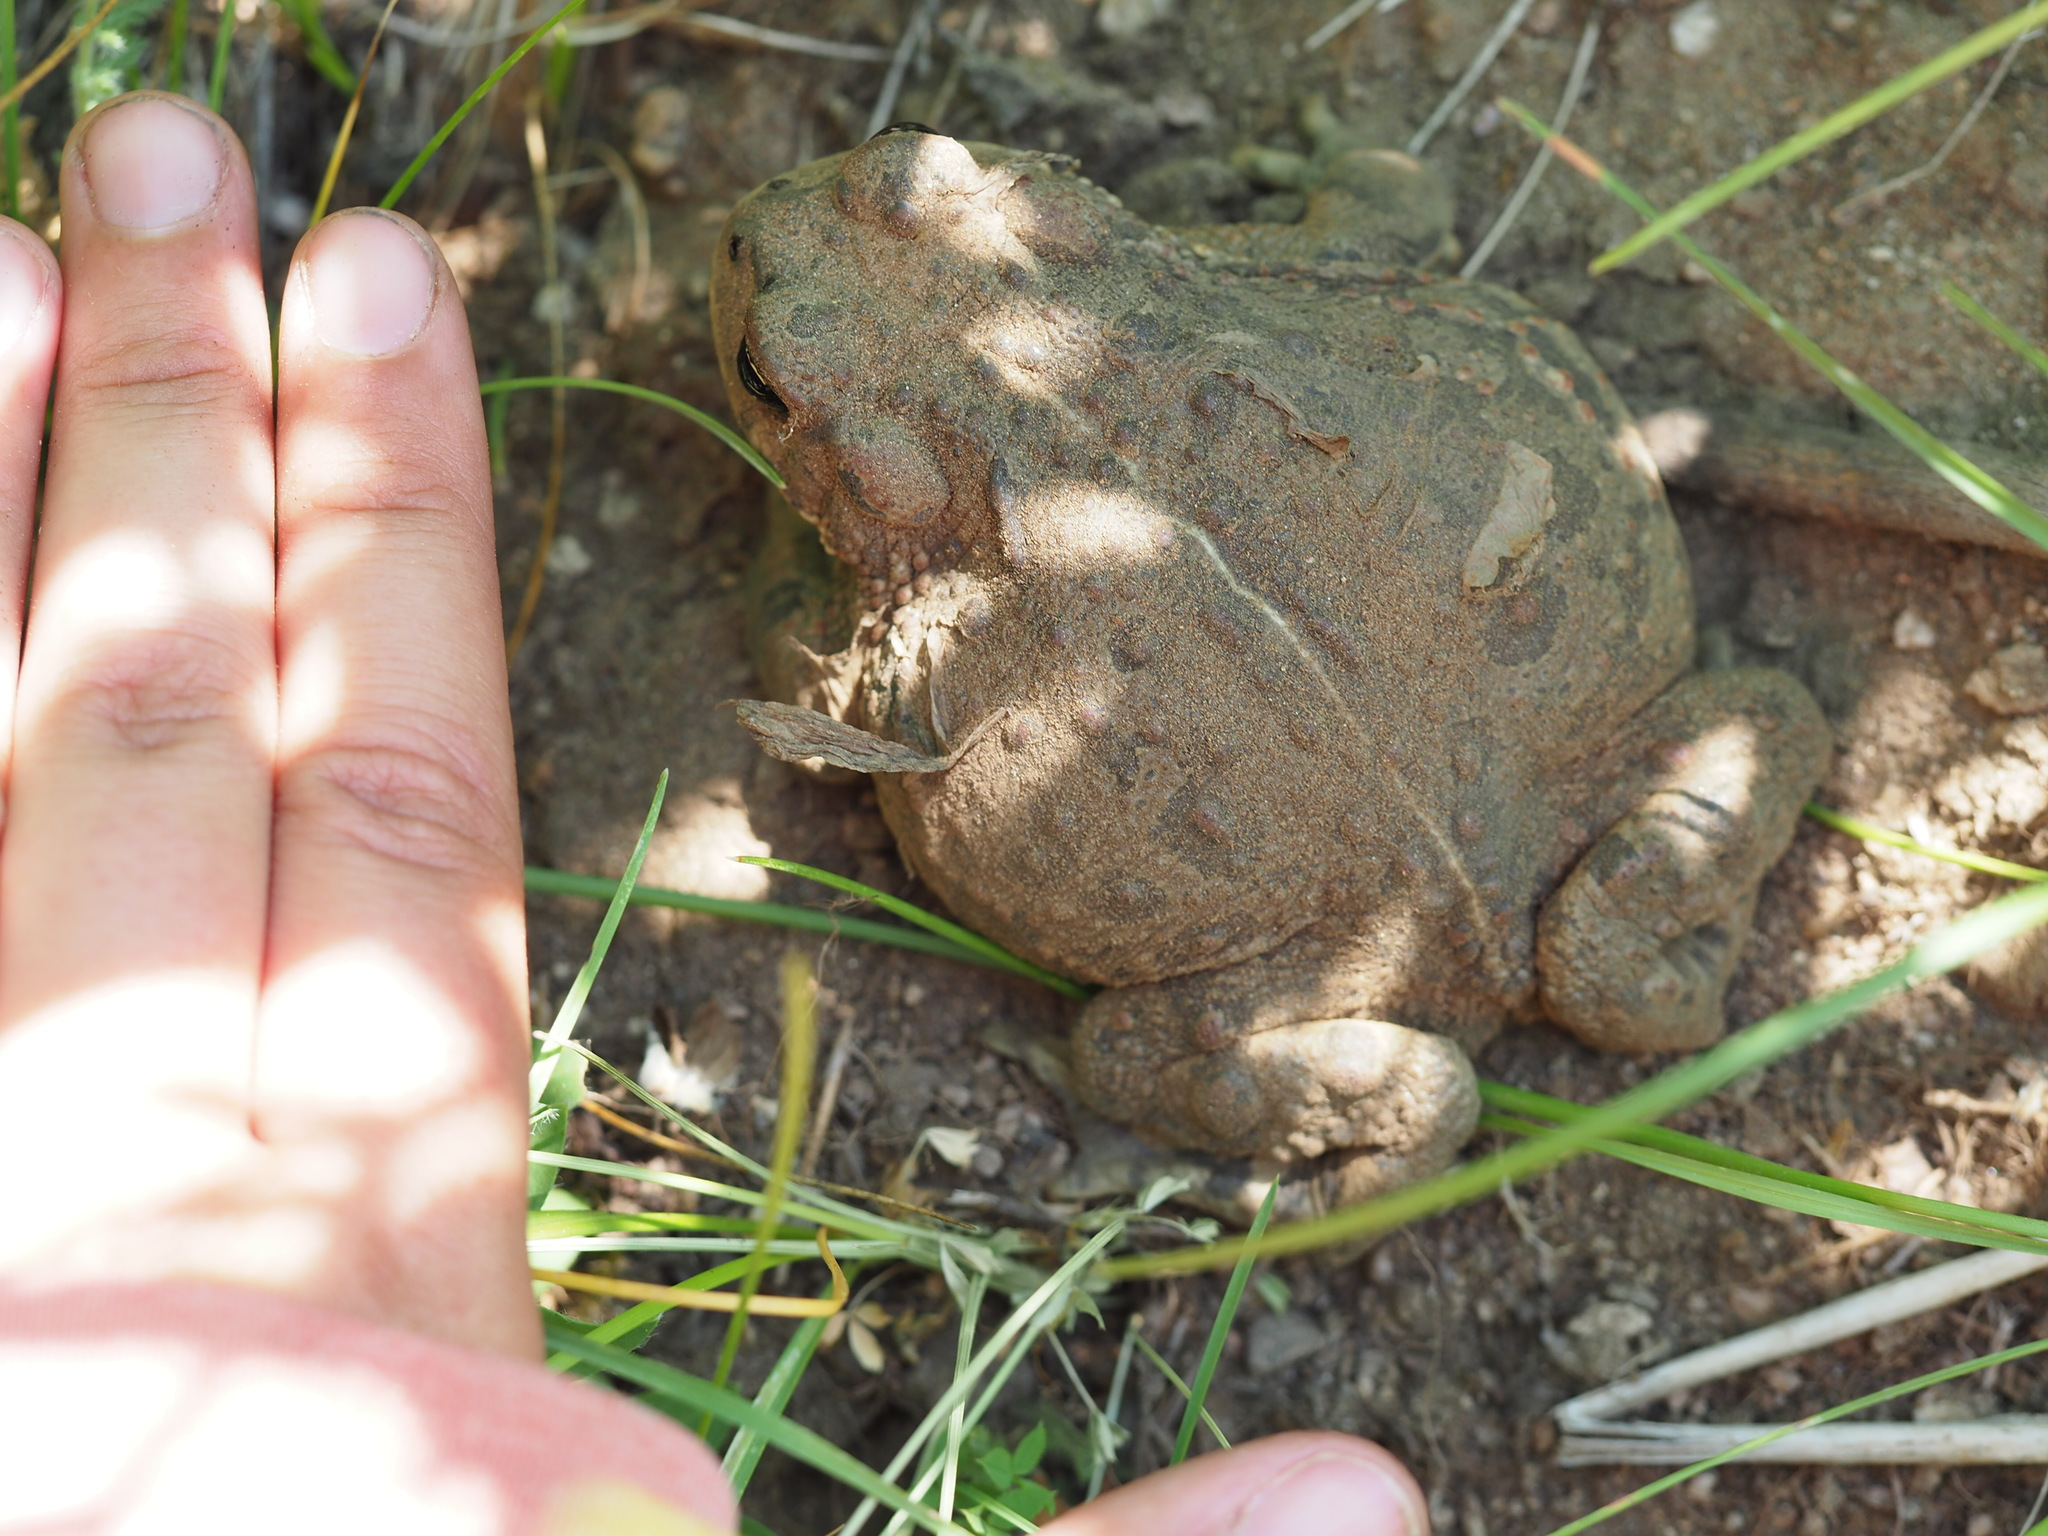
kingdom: Animalia
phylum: Chordata
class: Amphibia
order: Anura
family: Bufonidae
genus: Anaxyrus
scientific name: Anaxyrus boreas
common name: Western toad
